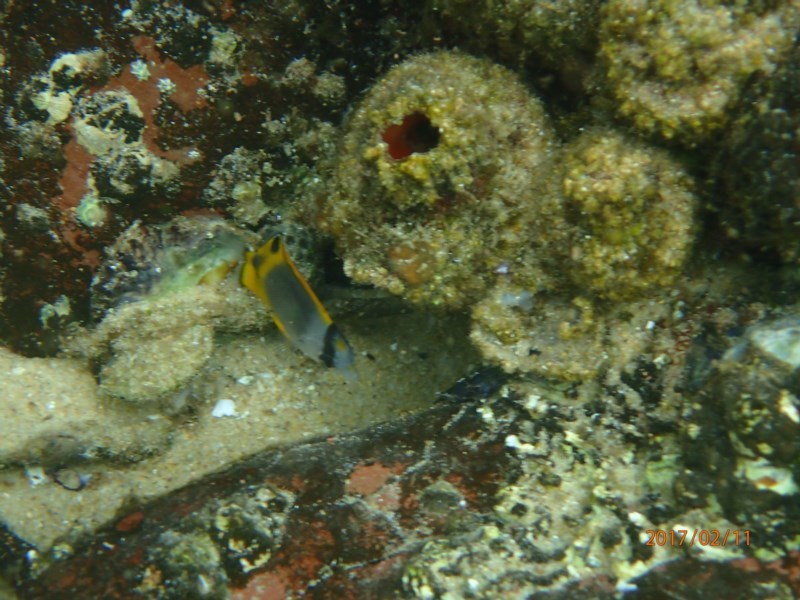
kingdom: Animalia
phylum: Chordata
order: Perciformes
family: Chaetodontidae
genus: Chaetodon
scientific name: Chaetodon flavirostris
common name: Black butterflyfish
